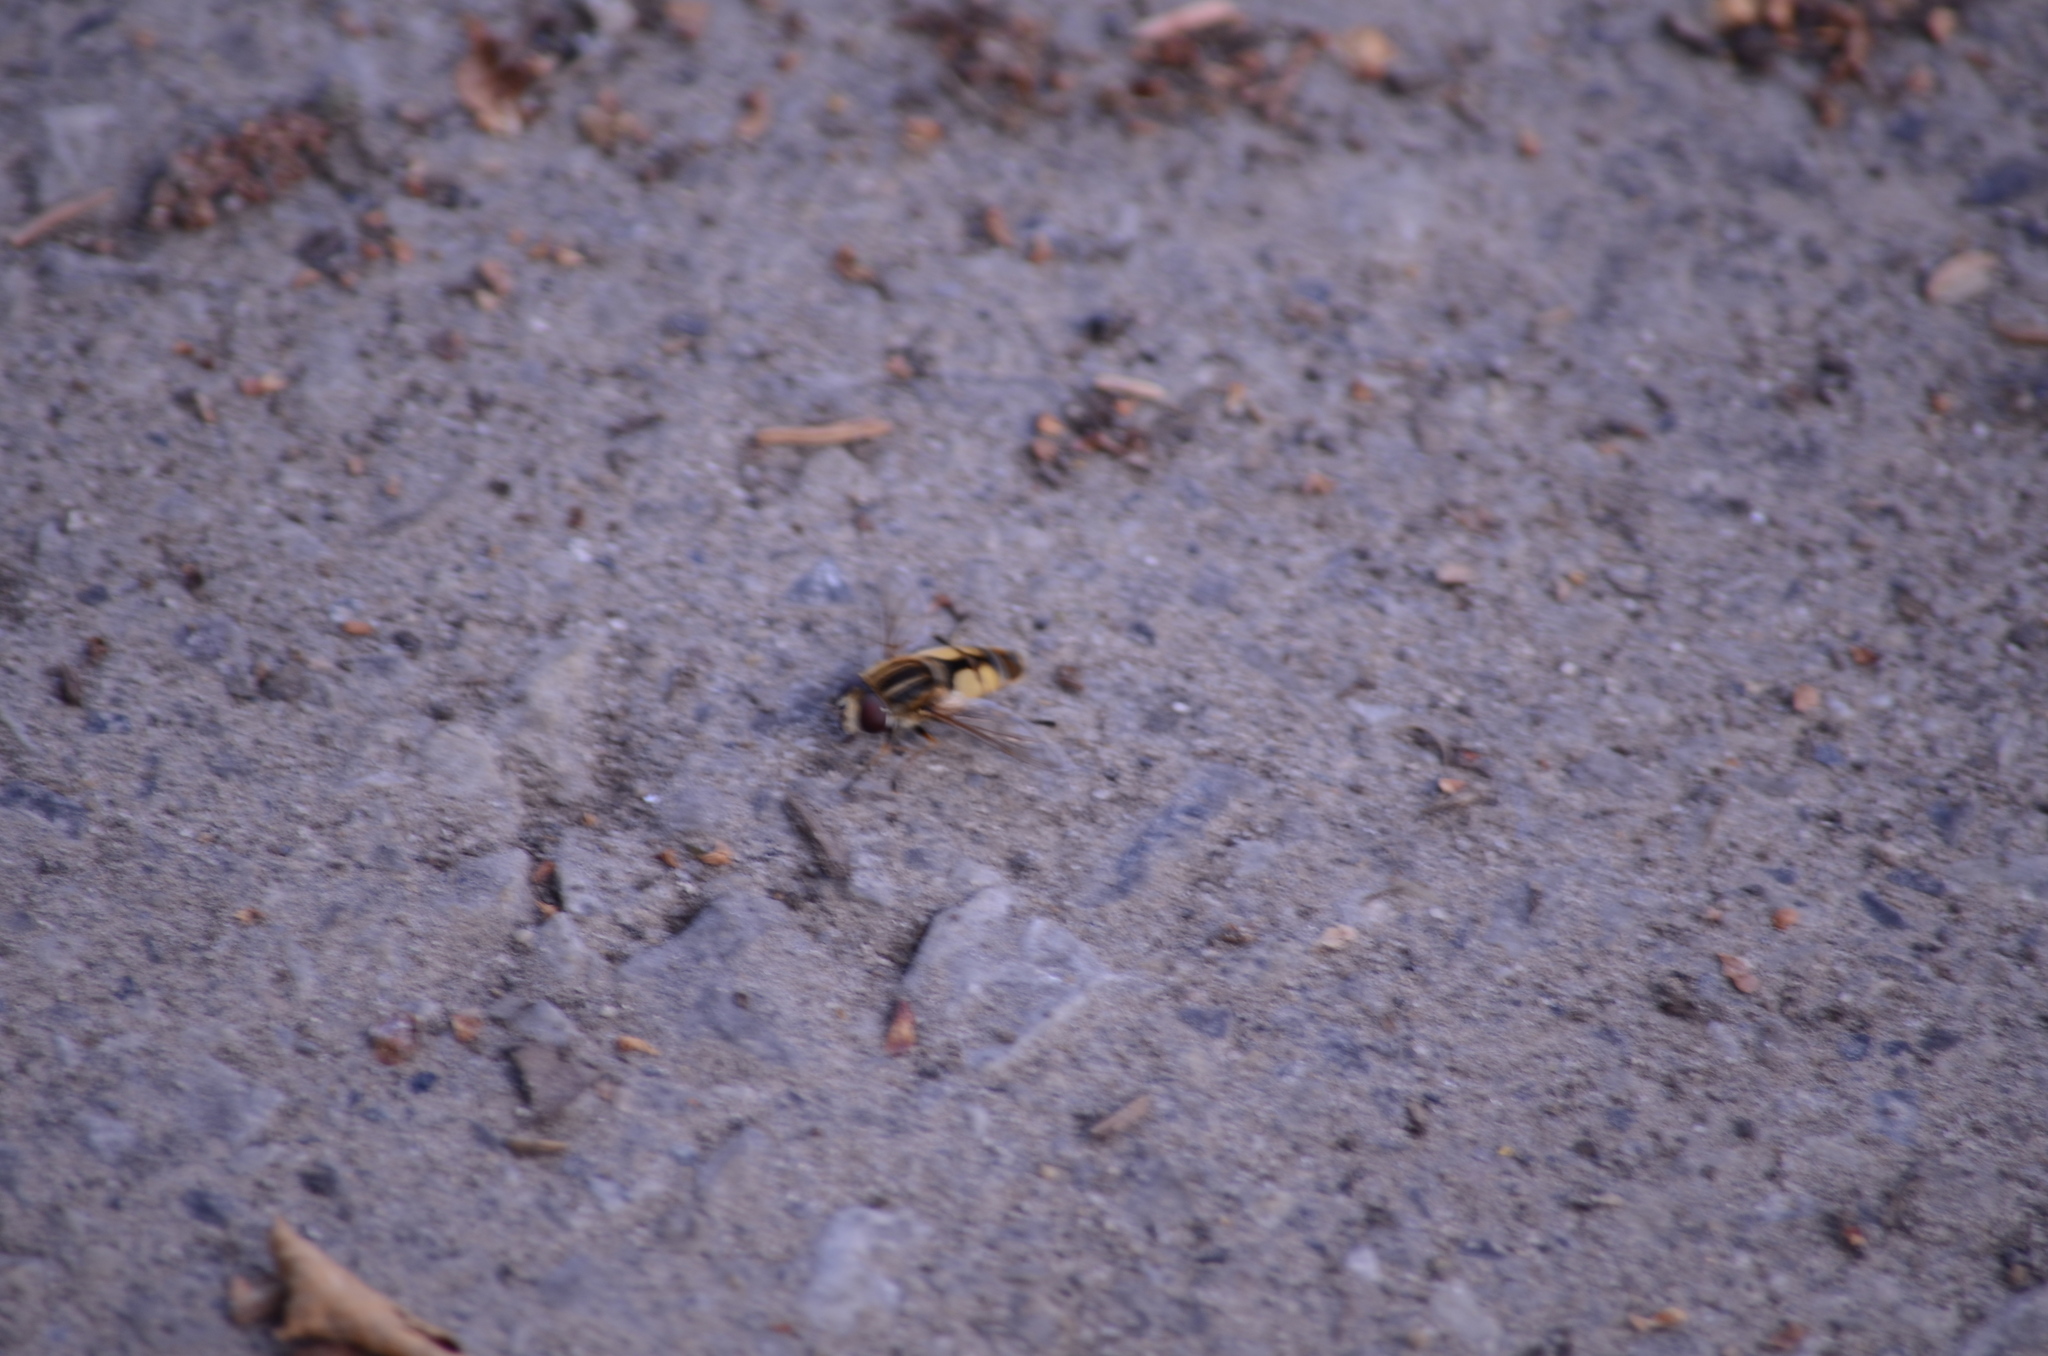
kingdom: Animalia
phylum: Arthropoda
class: Insecta
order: Diptera
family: Syrphidae
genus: Helophilus
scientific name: Helophilus hybridus
